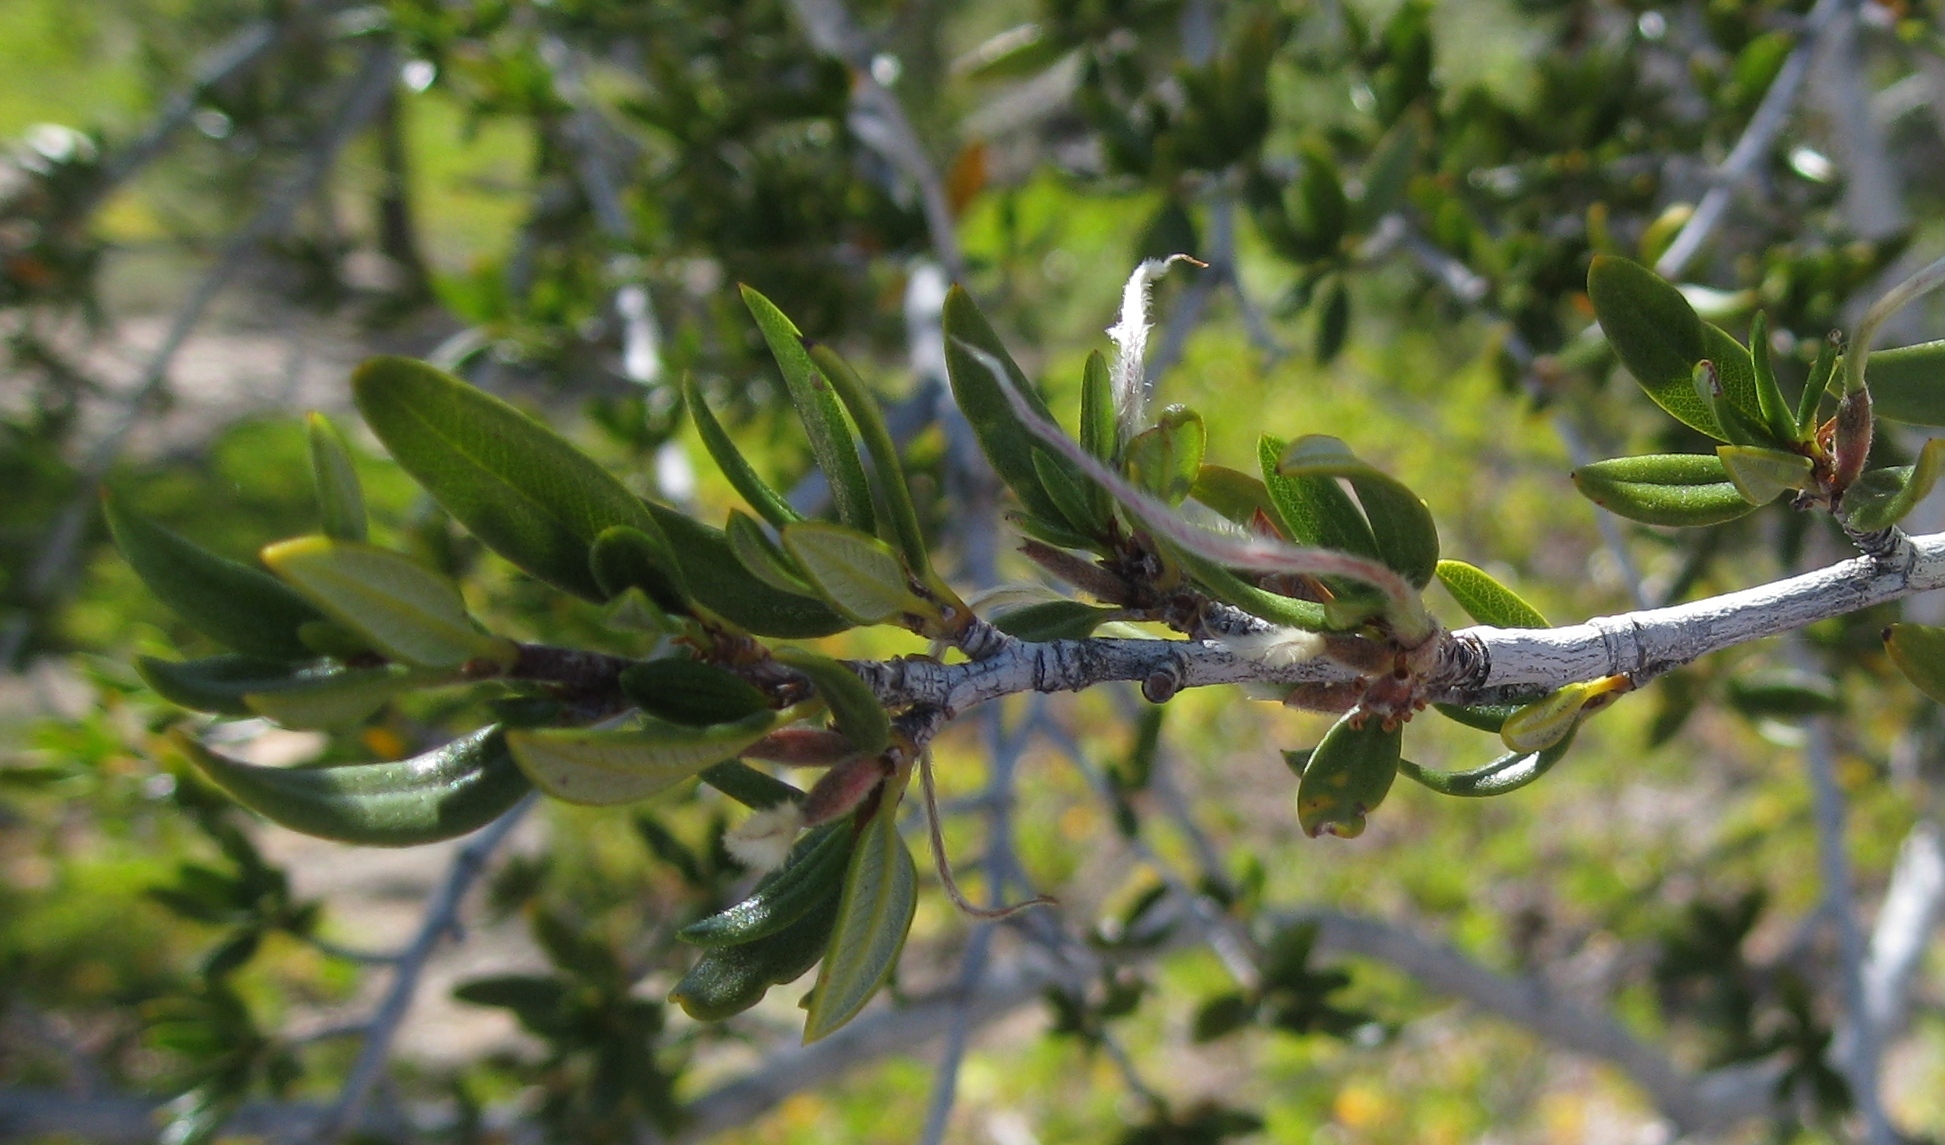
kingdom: Plantae
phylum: Tracheophyta
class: Magnoliopsida
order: Rosales
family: Rosaceae
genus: Cercocarpus
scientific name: Cercocarpus ledifolius
